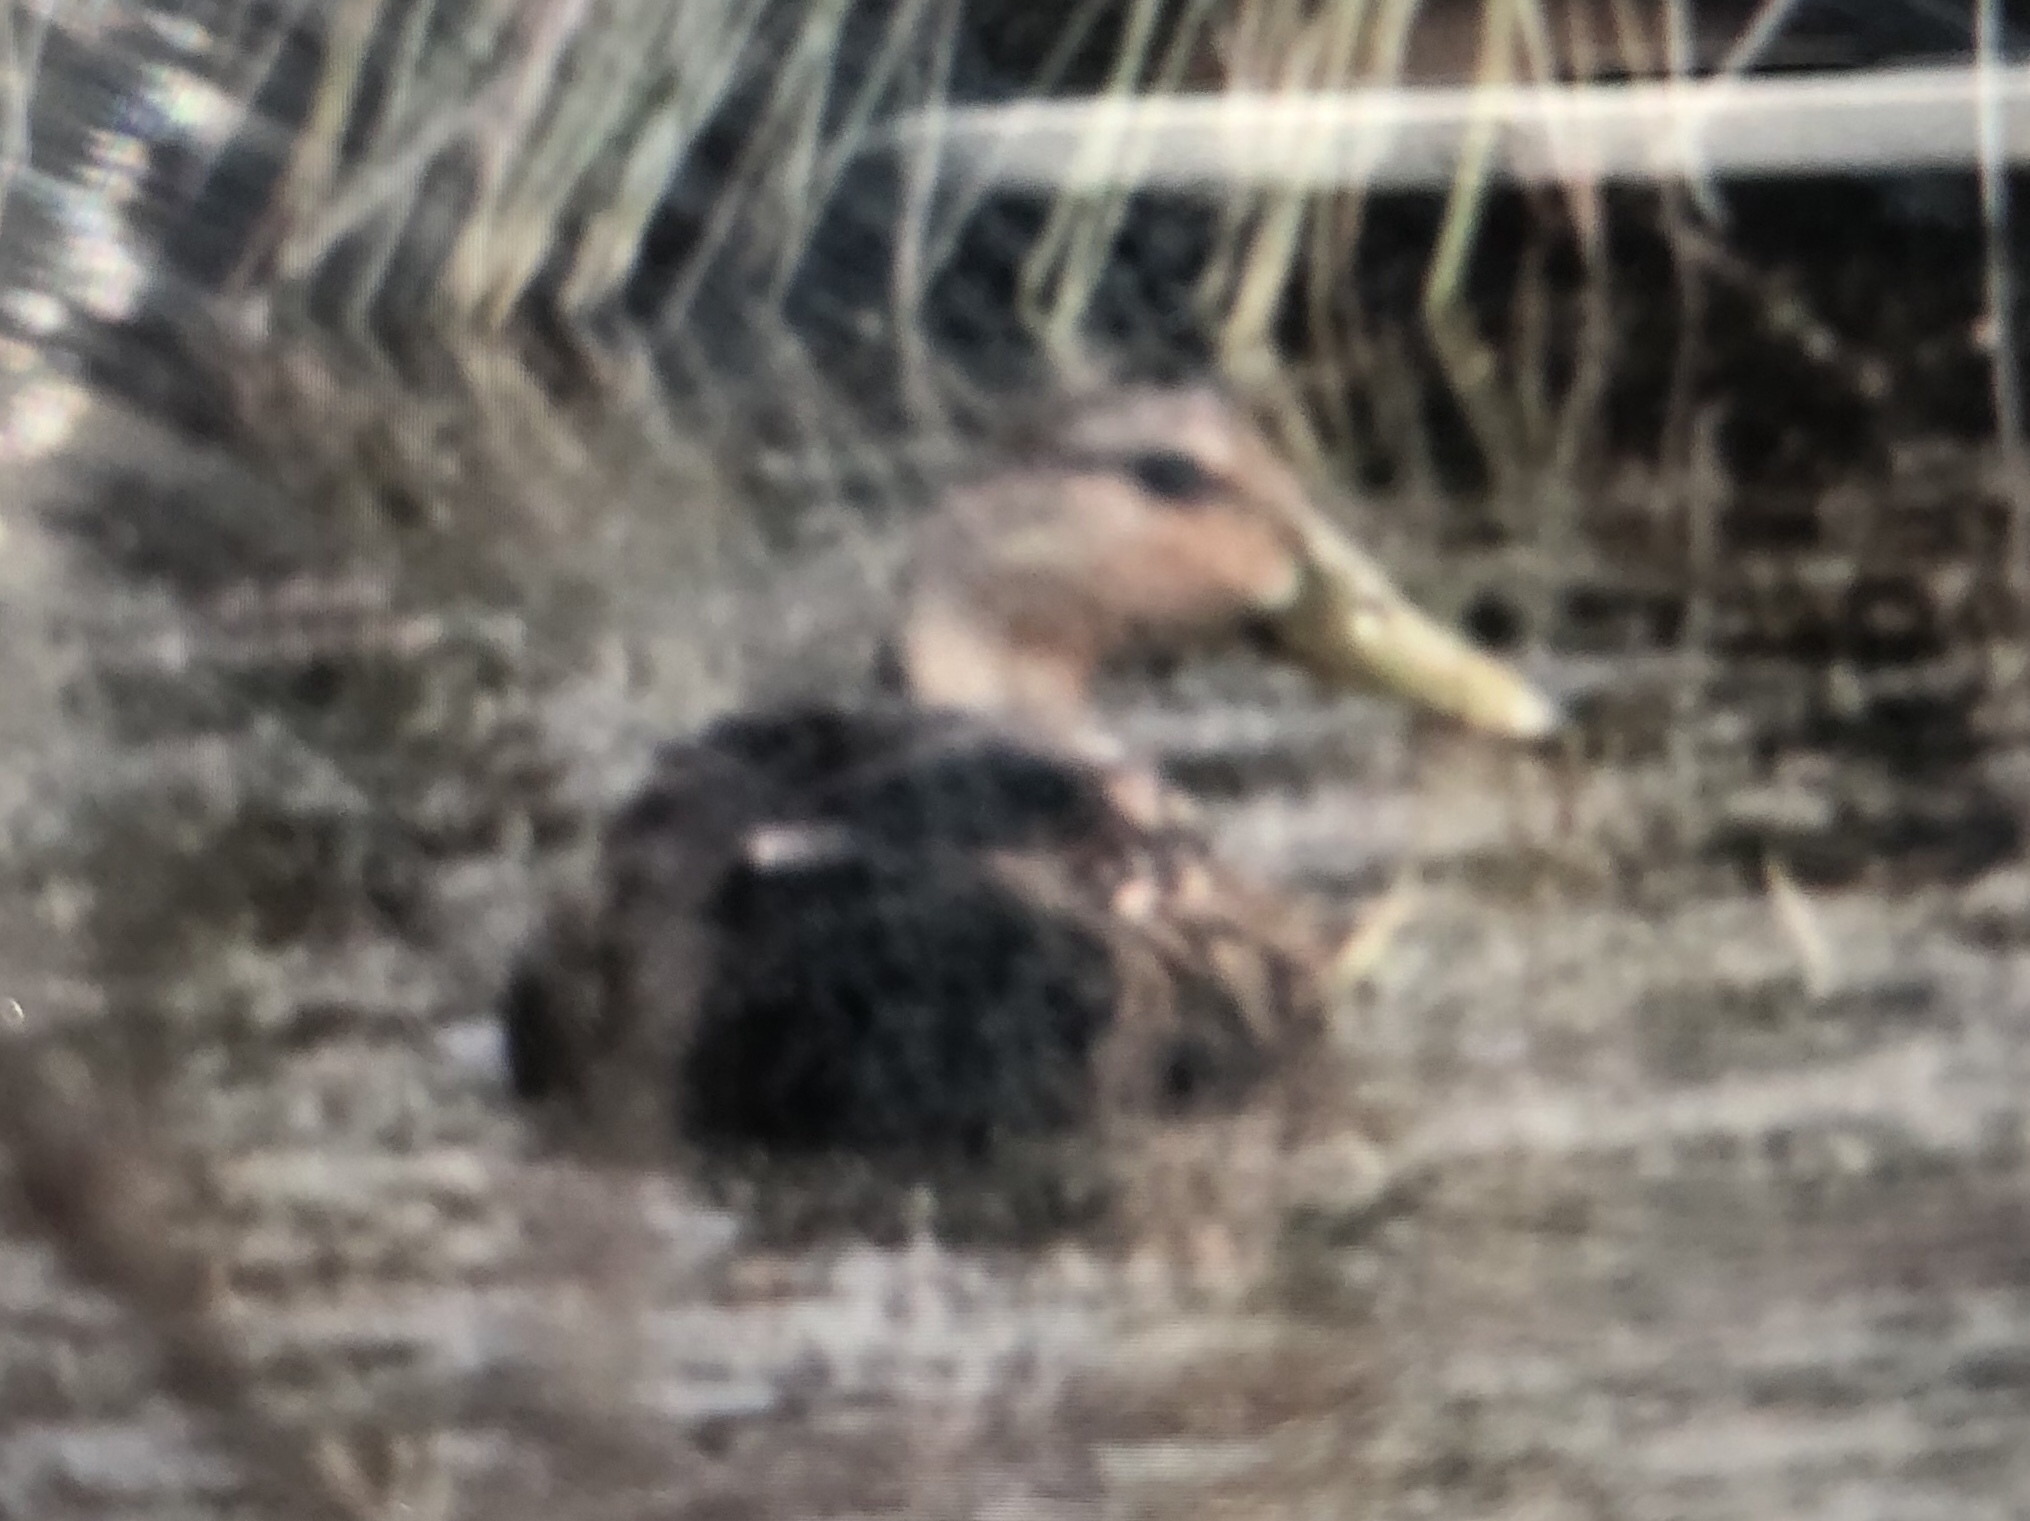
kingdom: Animalia
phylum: Chordata
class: Aves
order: Anseriformes
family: Anatidae
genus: Anas
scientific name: Anas fulvigula
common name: Mottled duck
